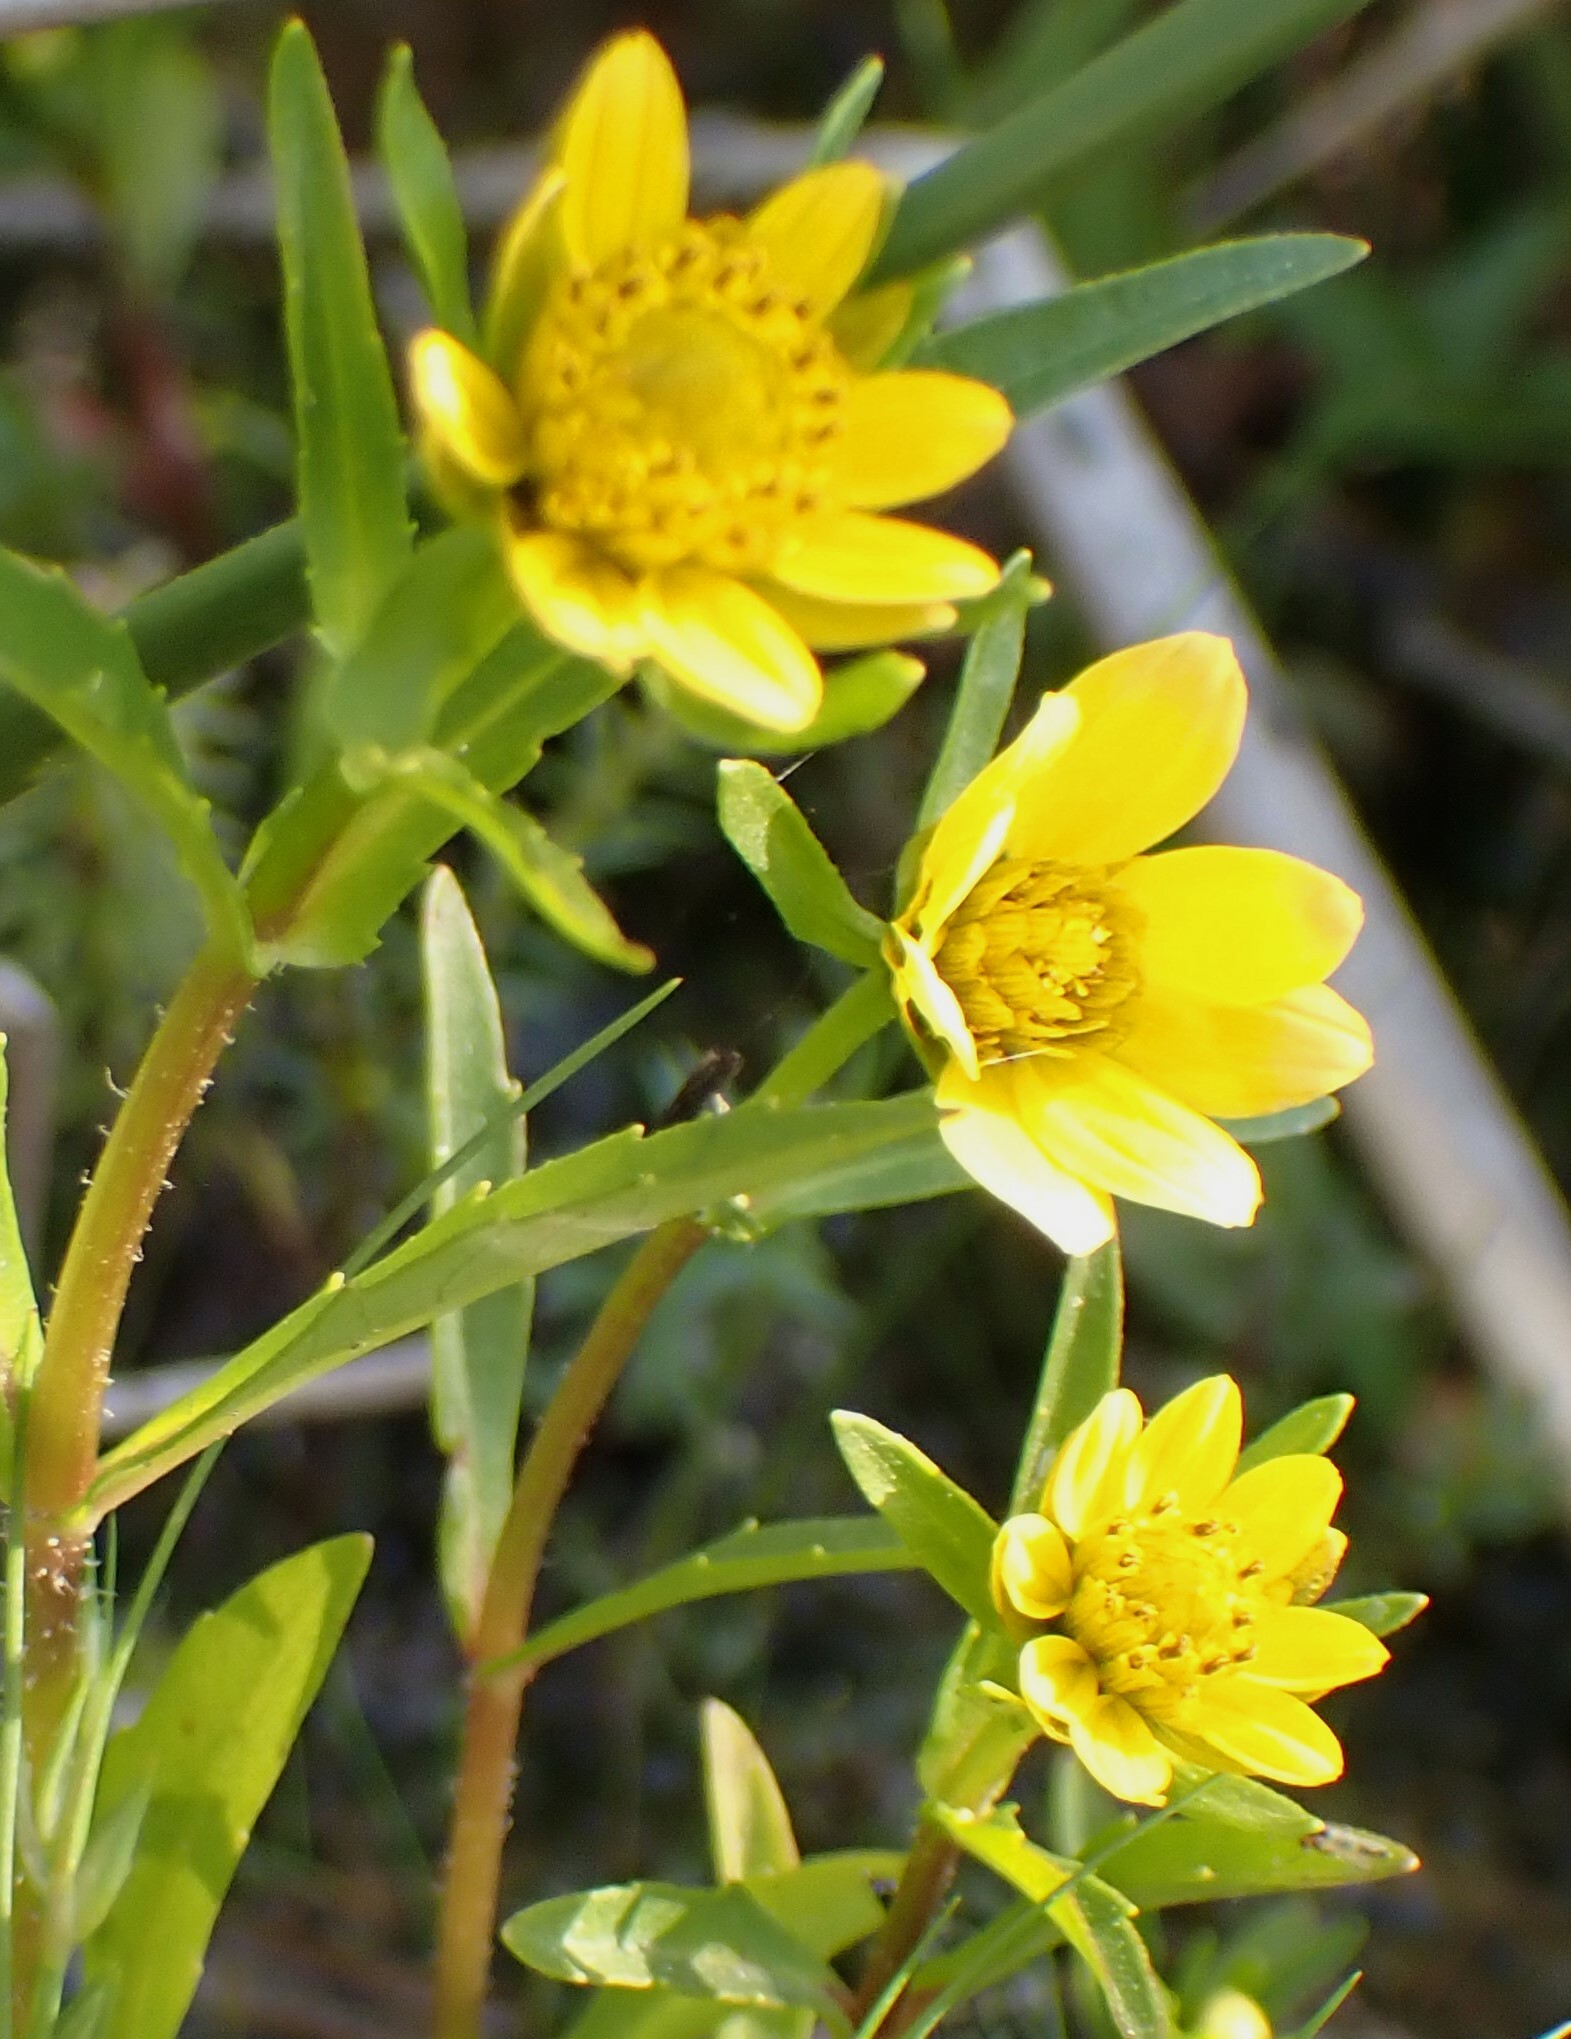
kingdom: Plantae
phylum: Tracheophyta
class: Magnoliopsida
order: Asterales
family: Asteraceae
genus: Bidens
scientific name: Bidens cernua
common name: Nodding bur-marigold
